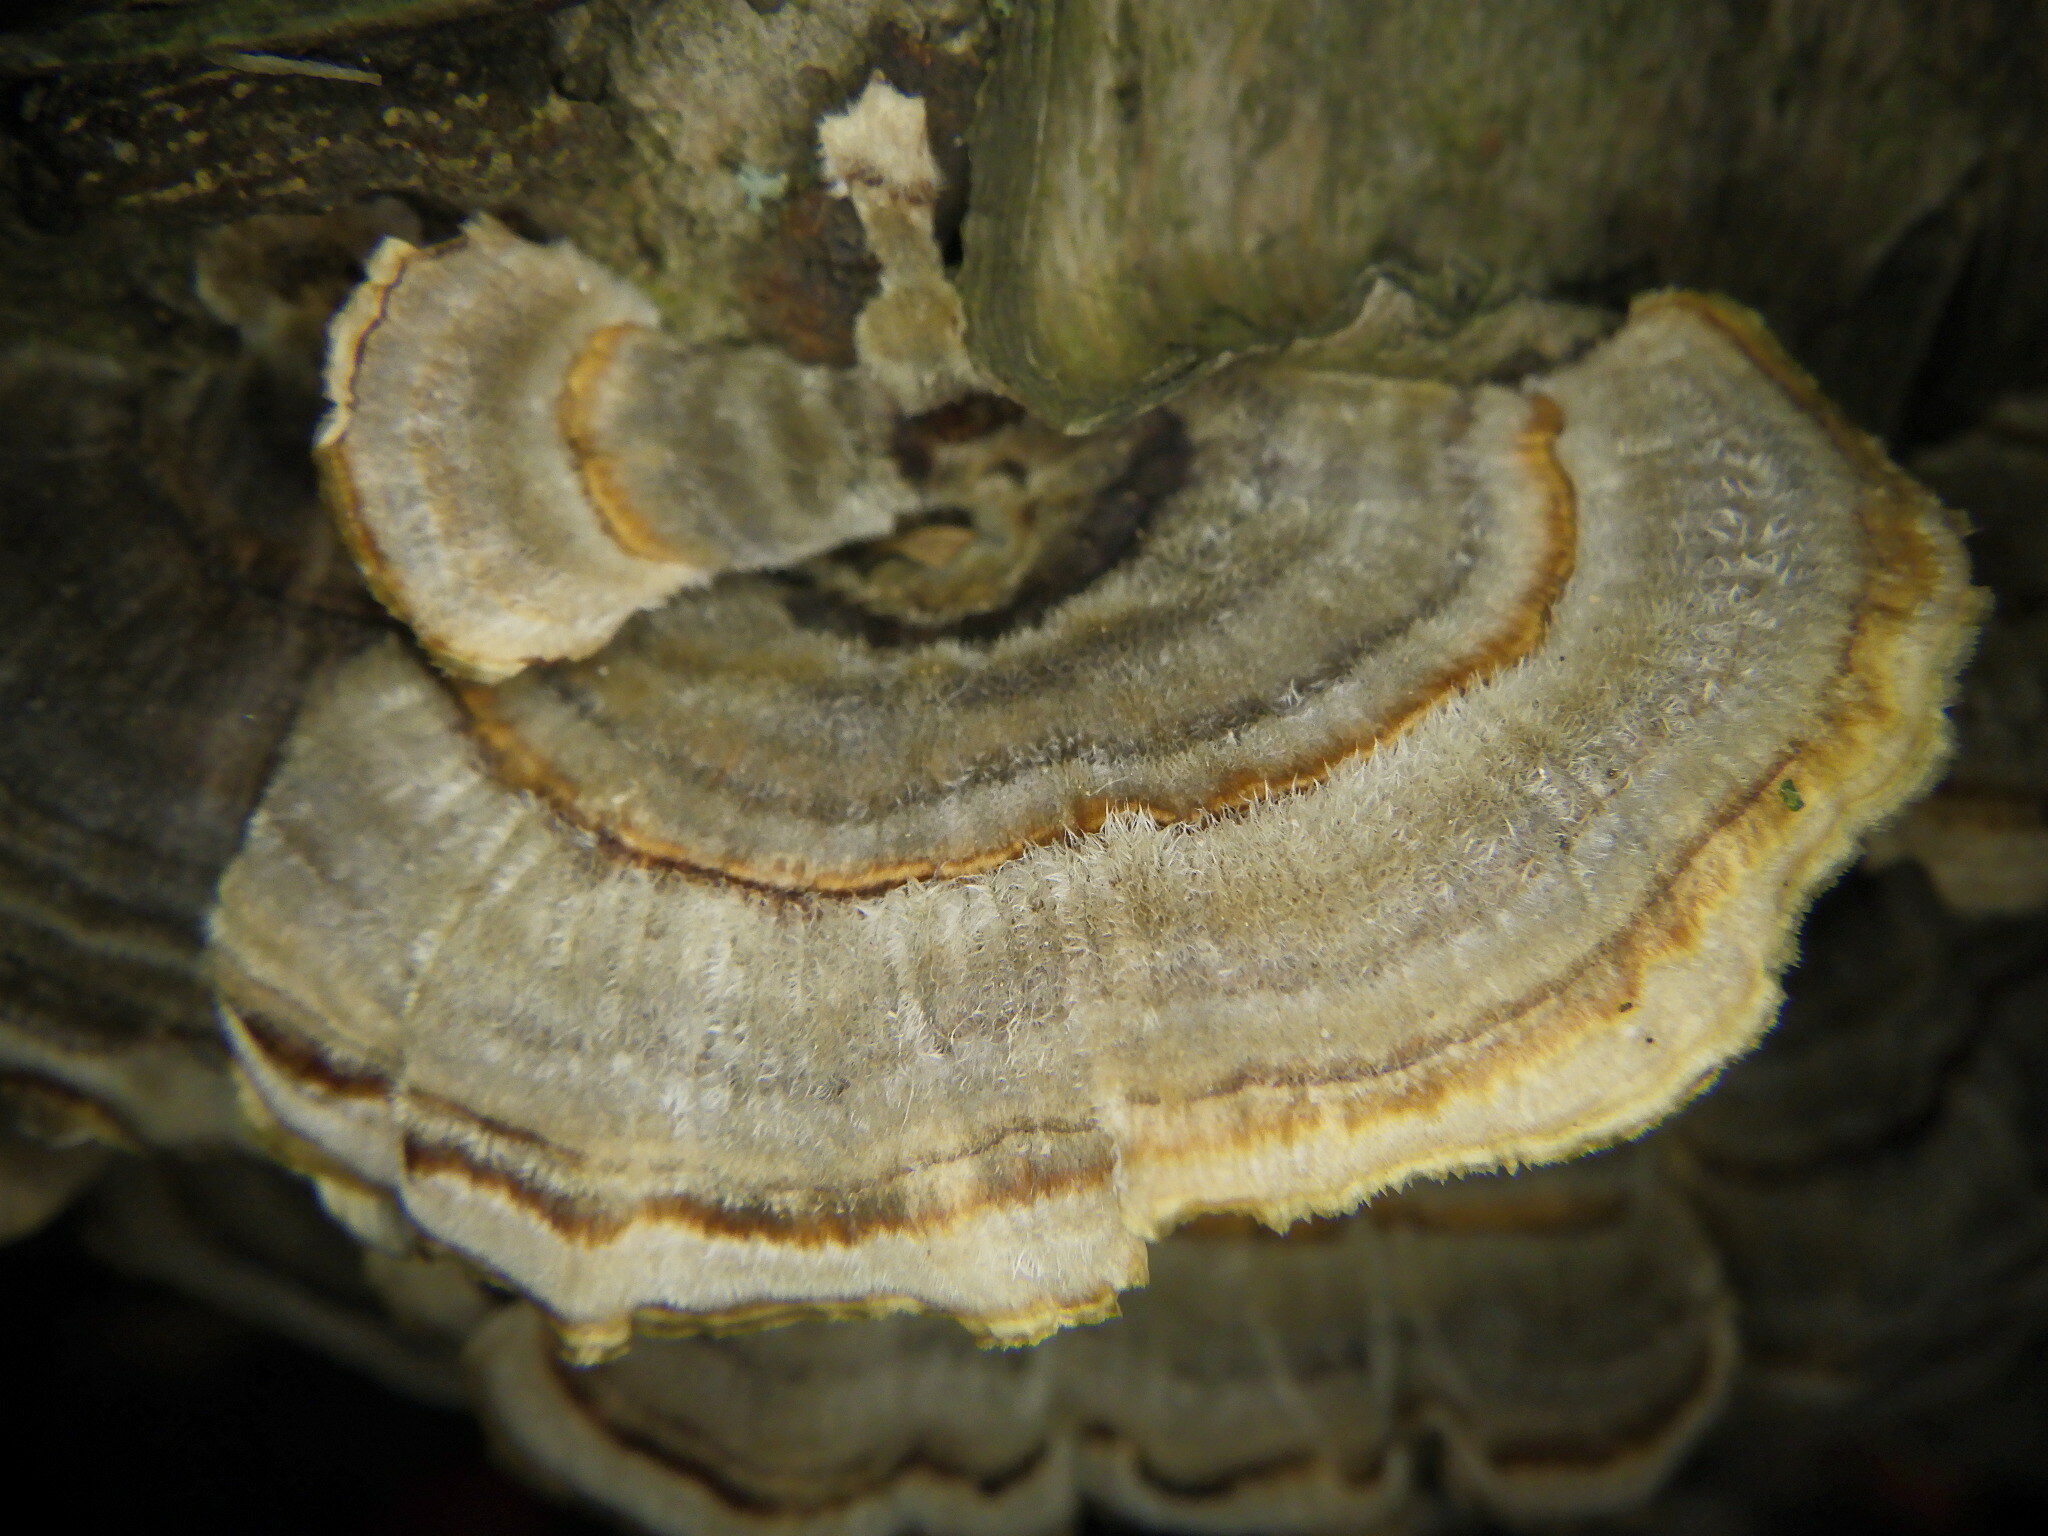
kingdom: Fungi
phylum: Basidiomycota
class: Agaricomycetes
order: Polyporales
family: Polyporaceae
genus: Trametes
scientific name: Trametes versicolor
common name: Turkeytail
